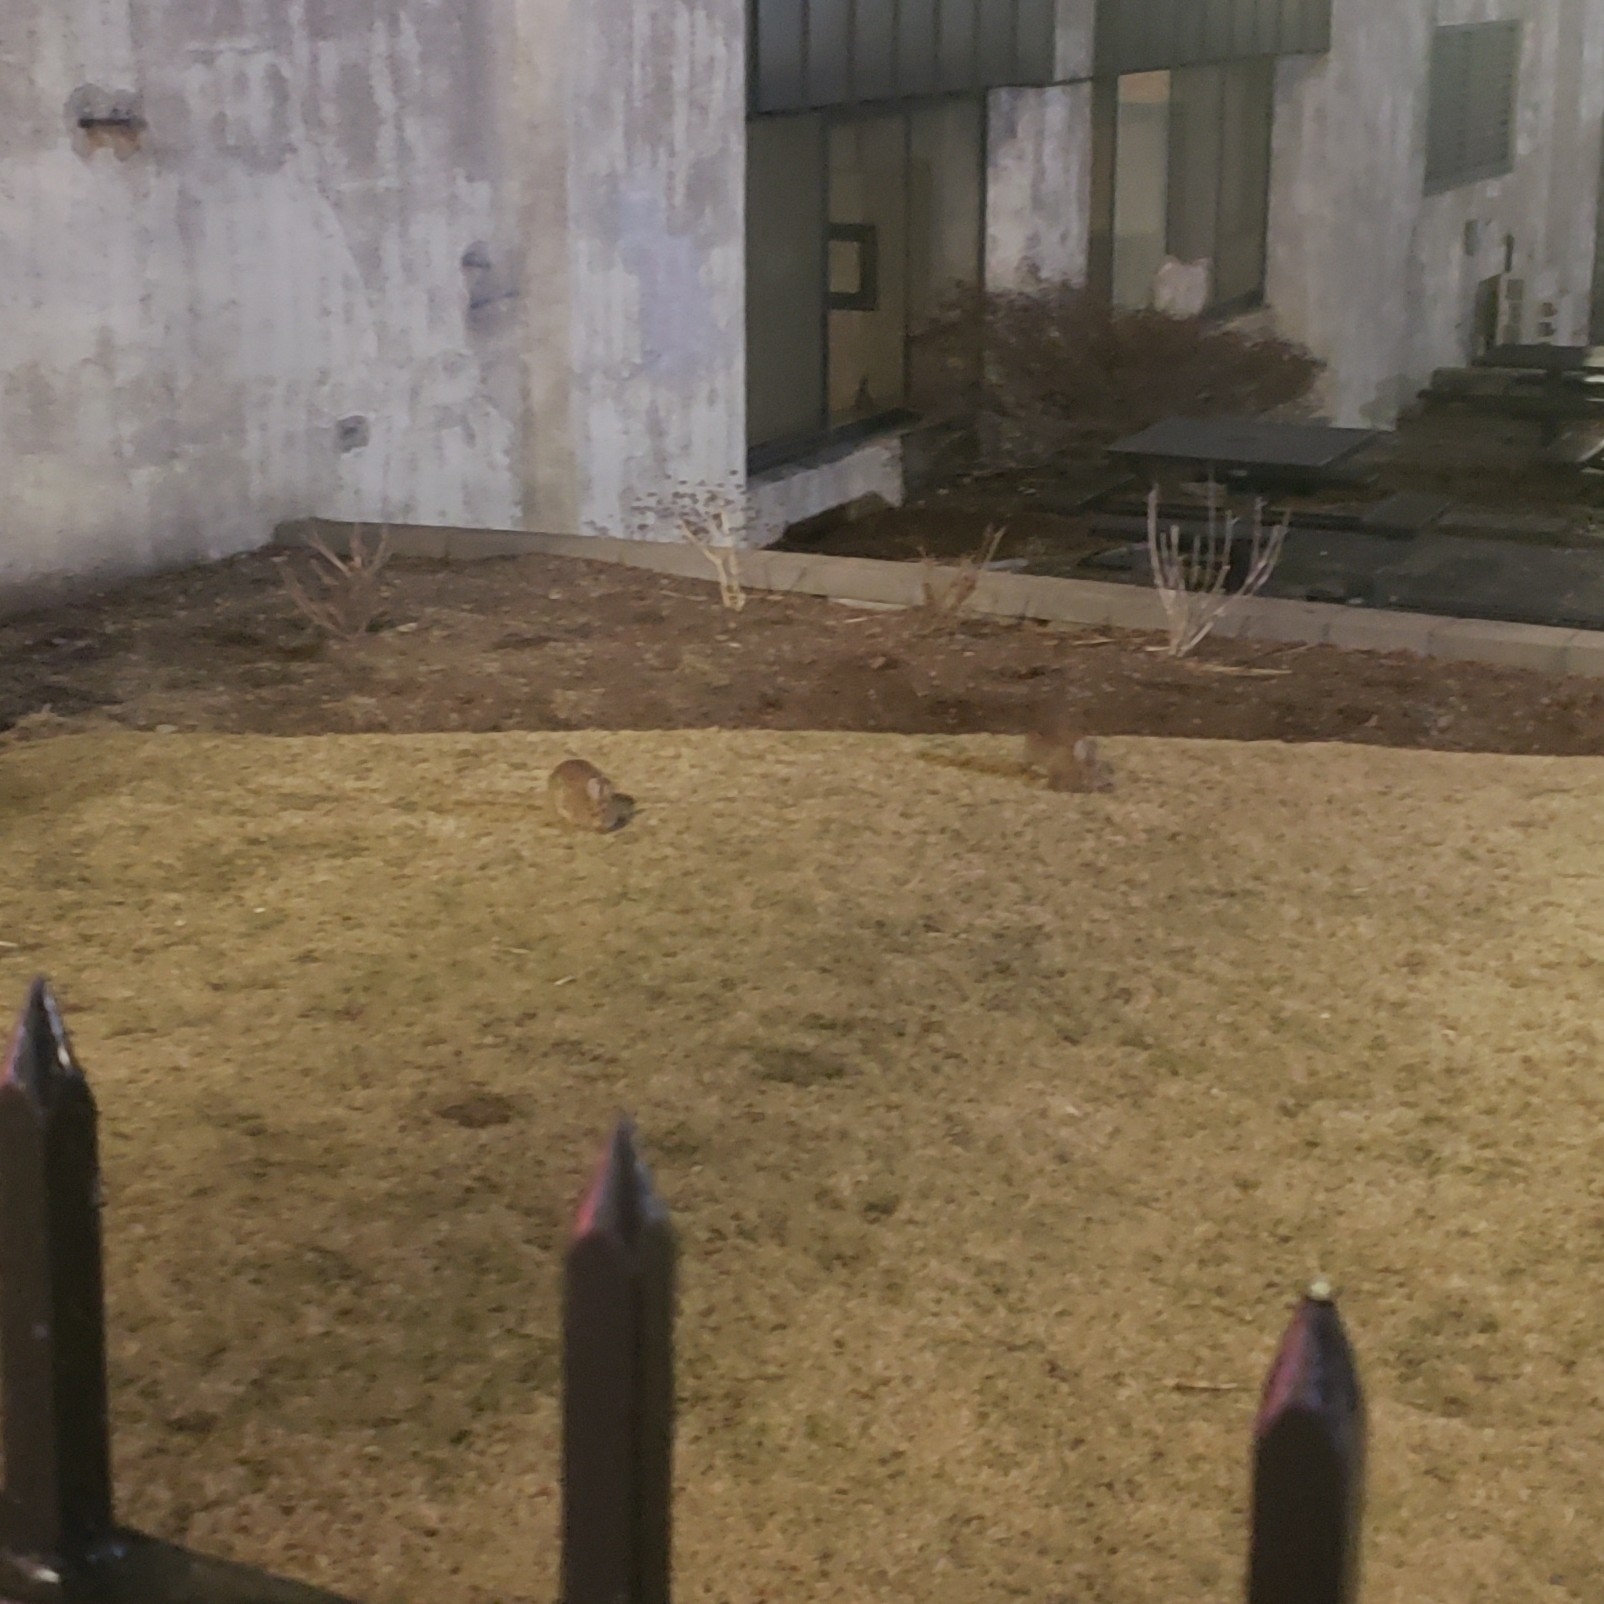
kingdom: Animalia
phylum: Chordata
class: Mammalia
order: Lagomorpha
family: Leporidae
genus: Sylvilagus
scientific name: Sylvilagus floridanus
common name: Eastern cottontail
